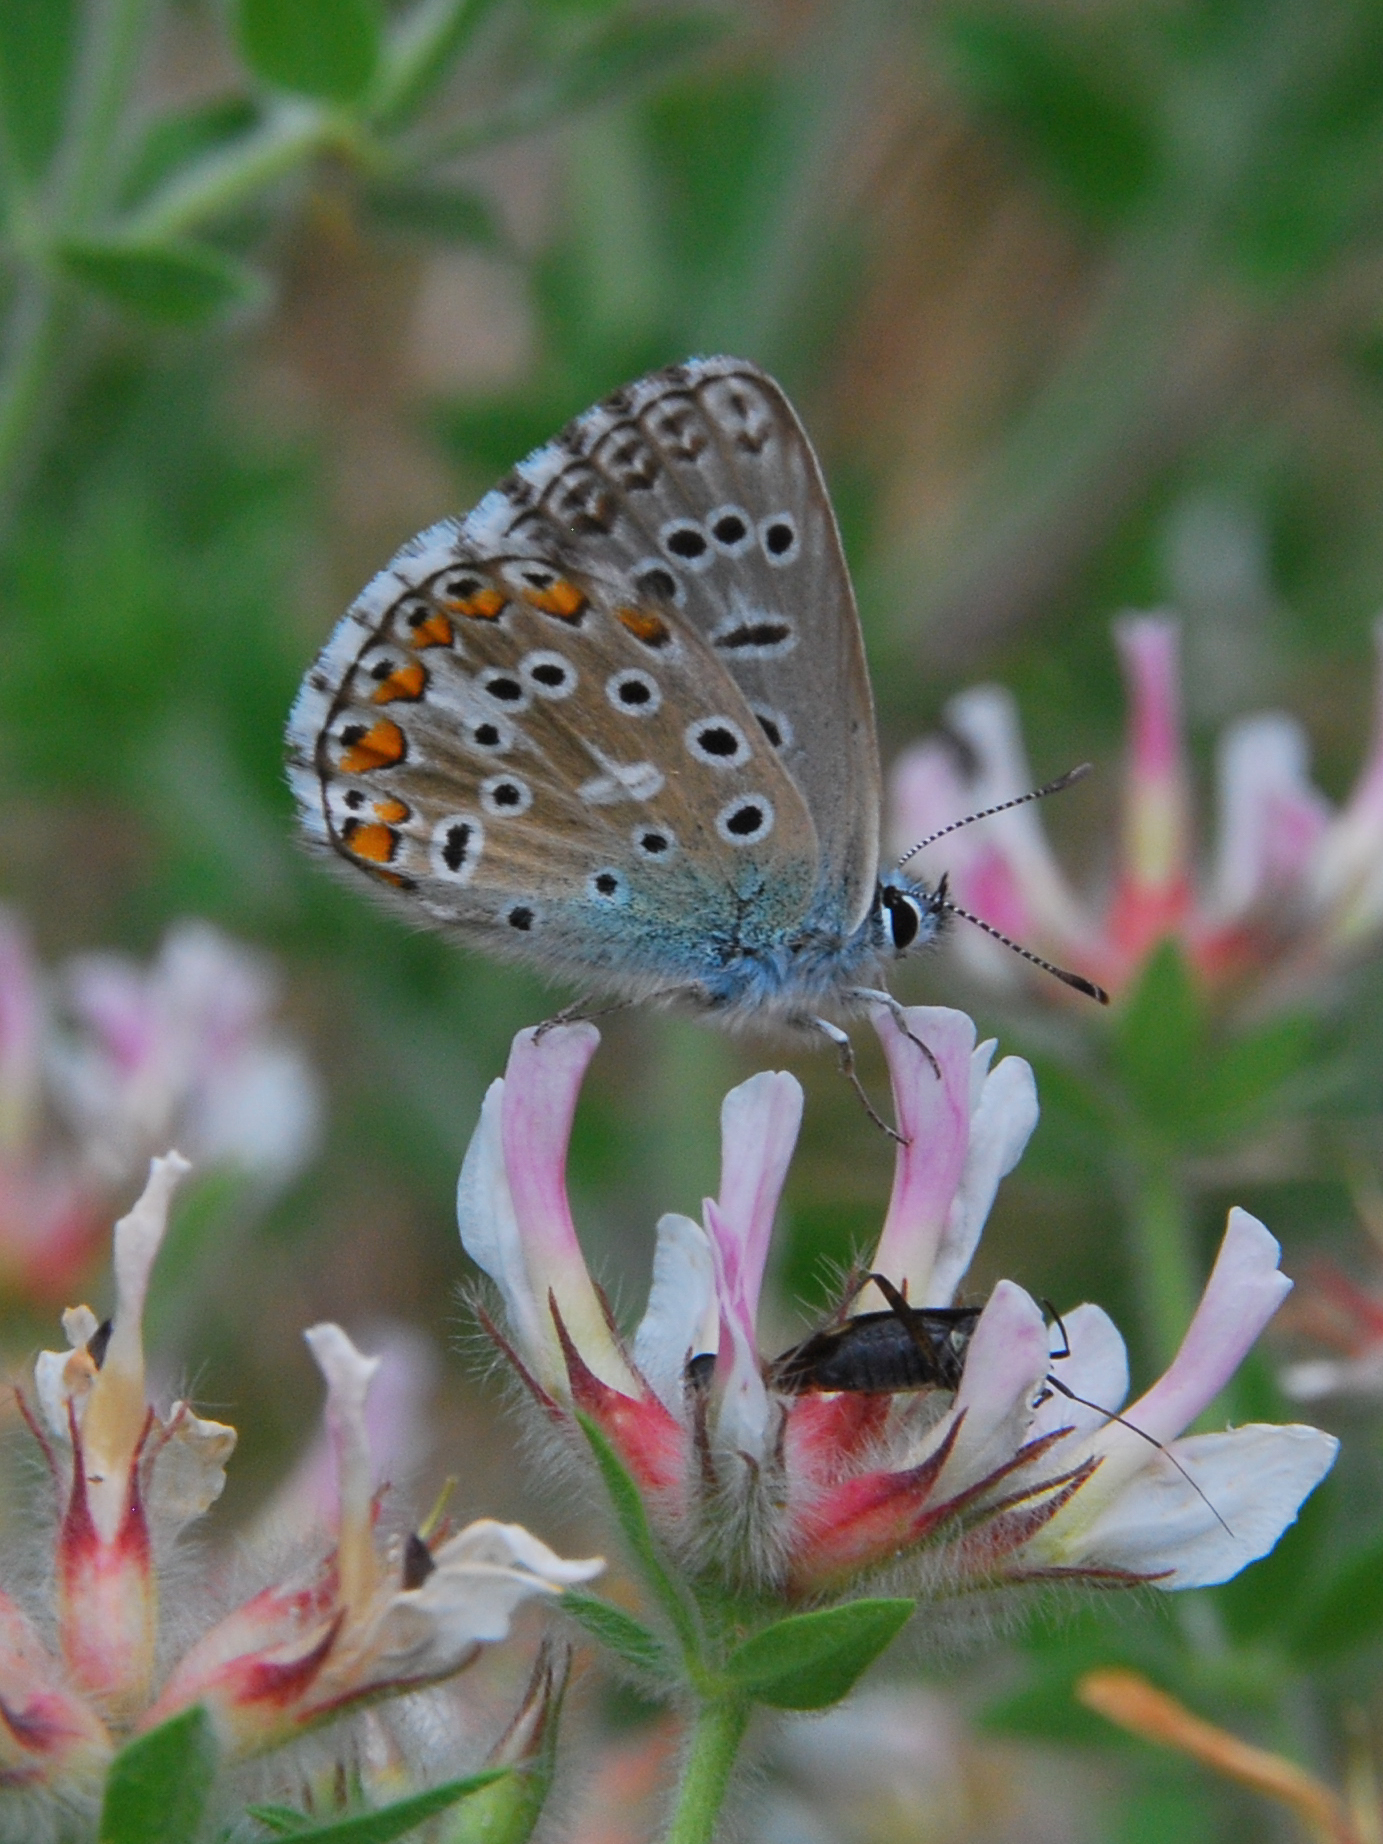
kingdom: Animalia
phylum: Arthropoda
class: Insecta
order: Lepidoptera
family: Lycaenidae
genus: Lysandra
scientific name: Lysandra bellargus
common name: Adonis blue
